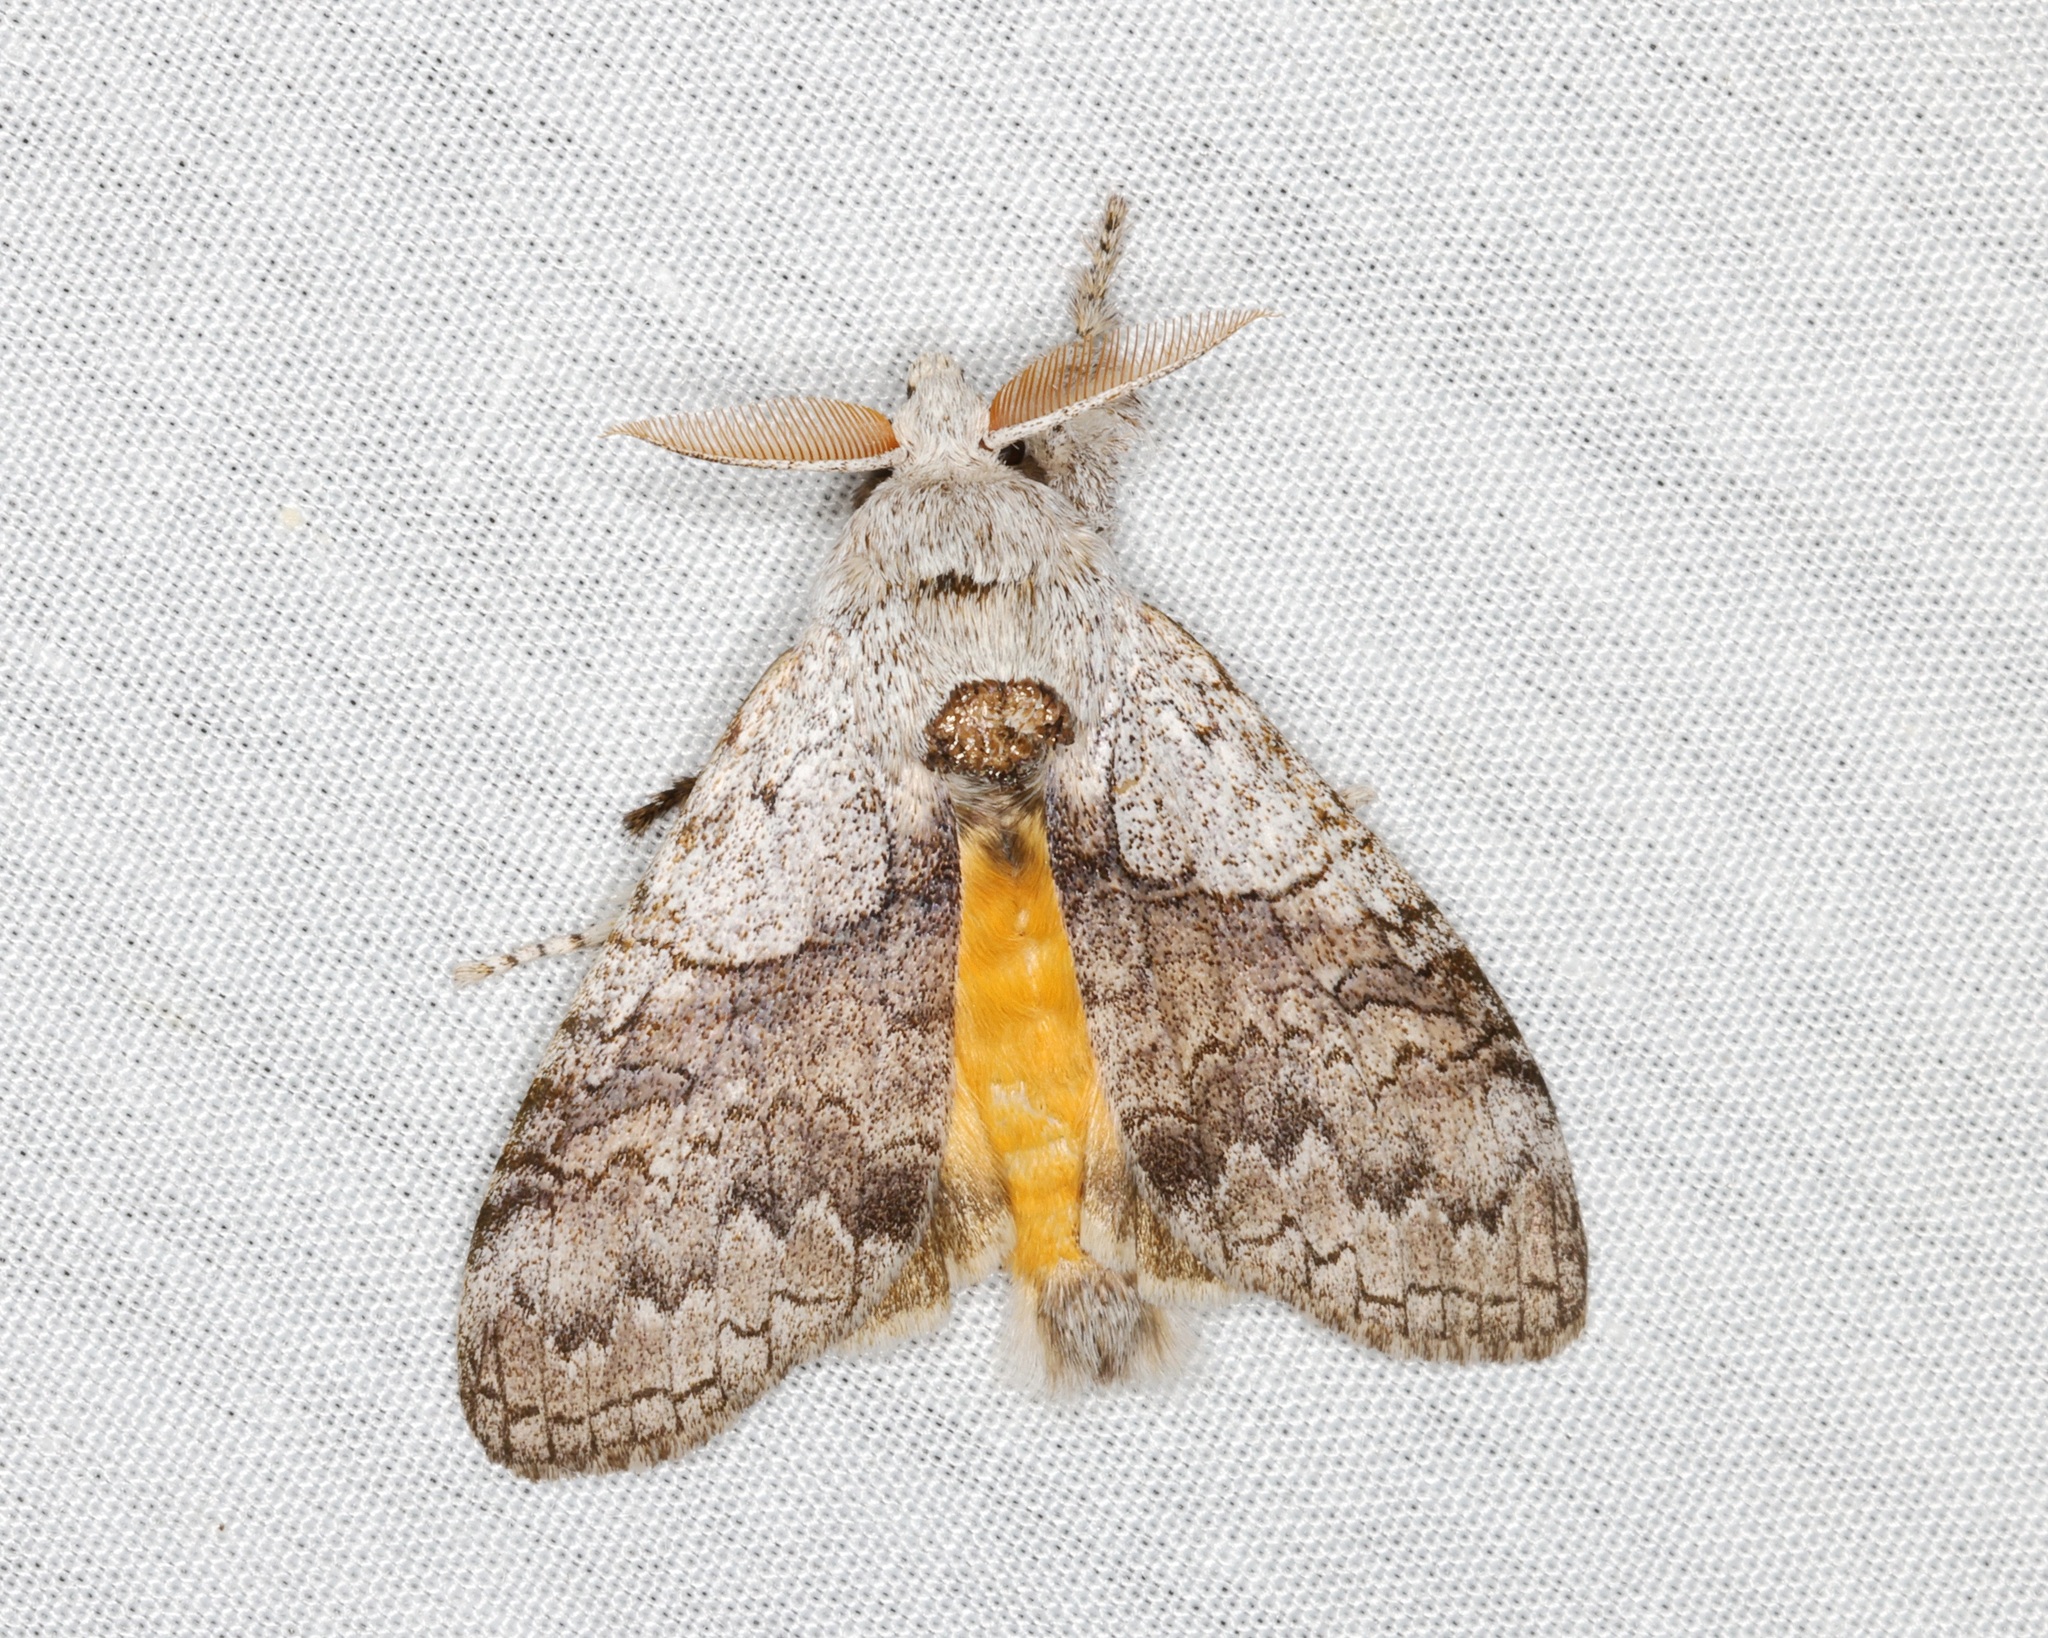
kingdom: Animalia
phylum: Arthropoda
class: Insecta
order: Lepidoptera
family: Erebidae
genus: Calliteara
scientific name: Calliteara grotei
